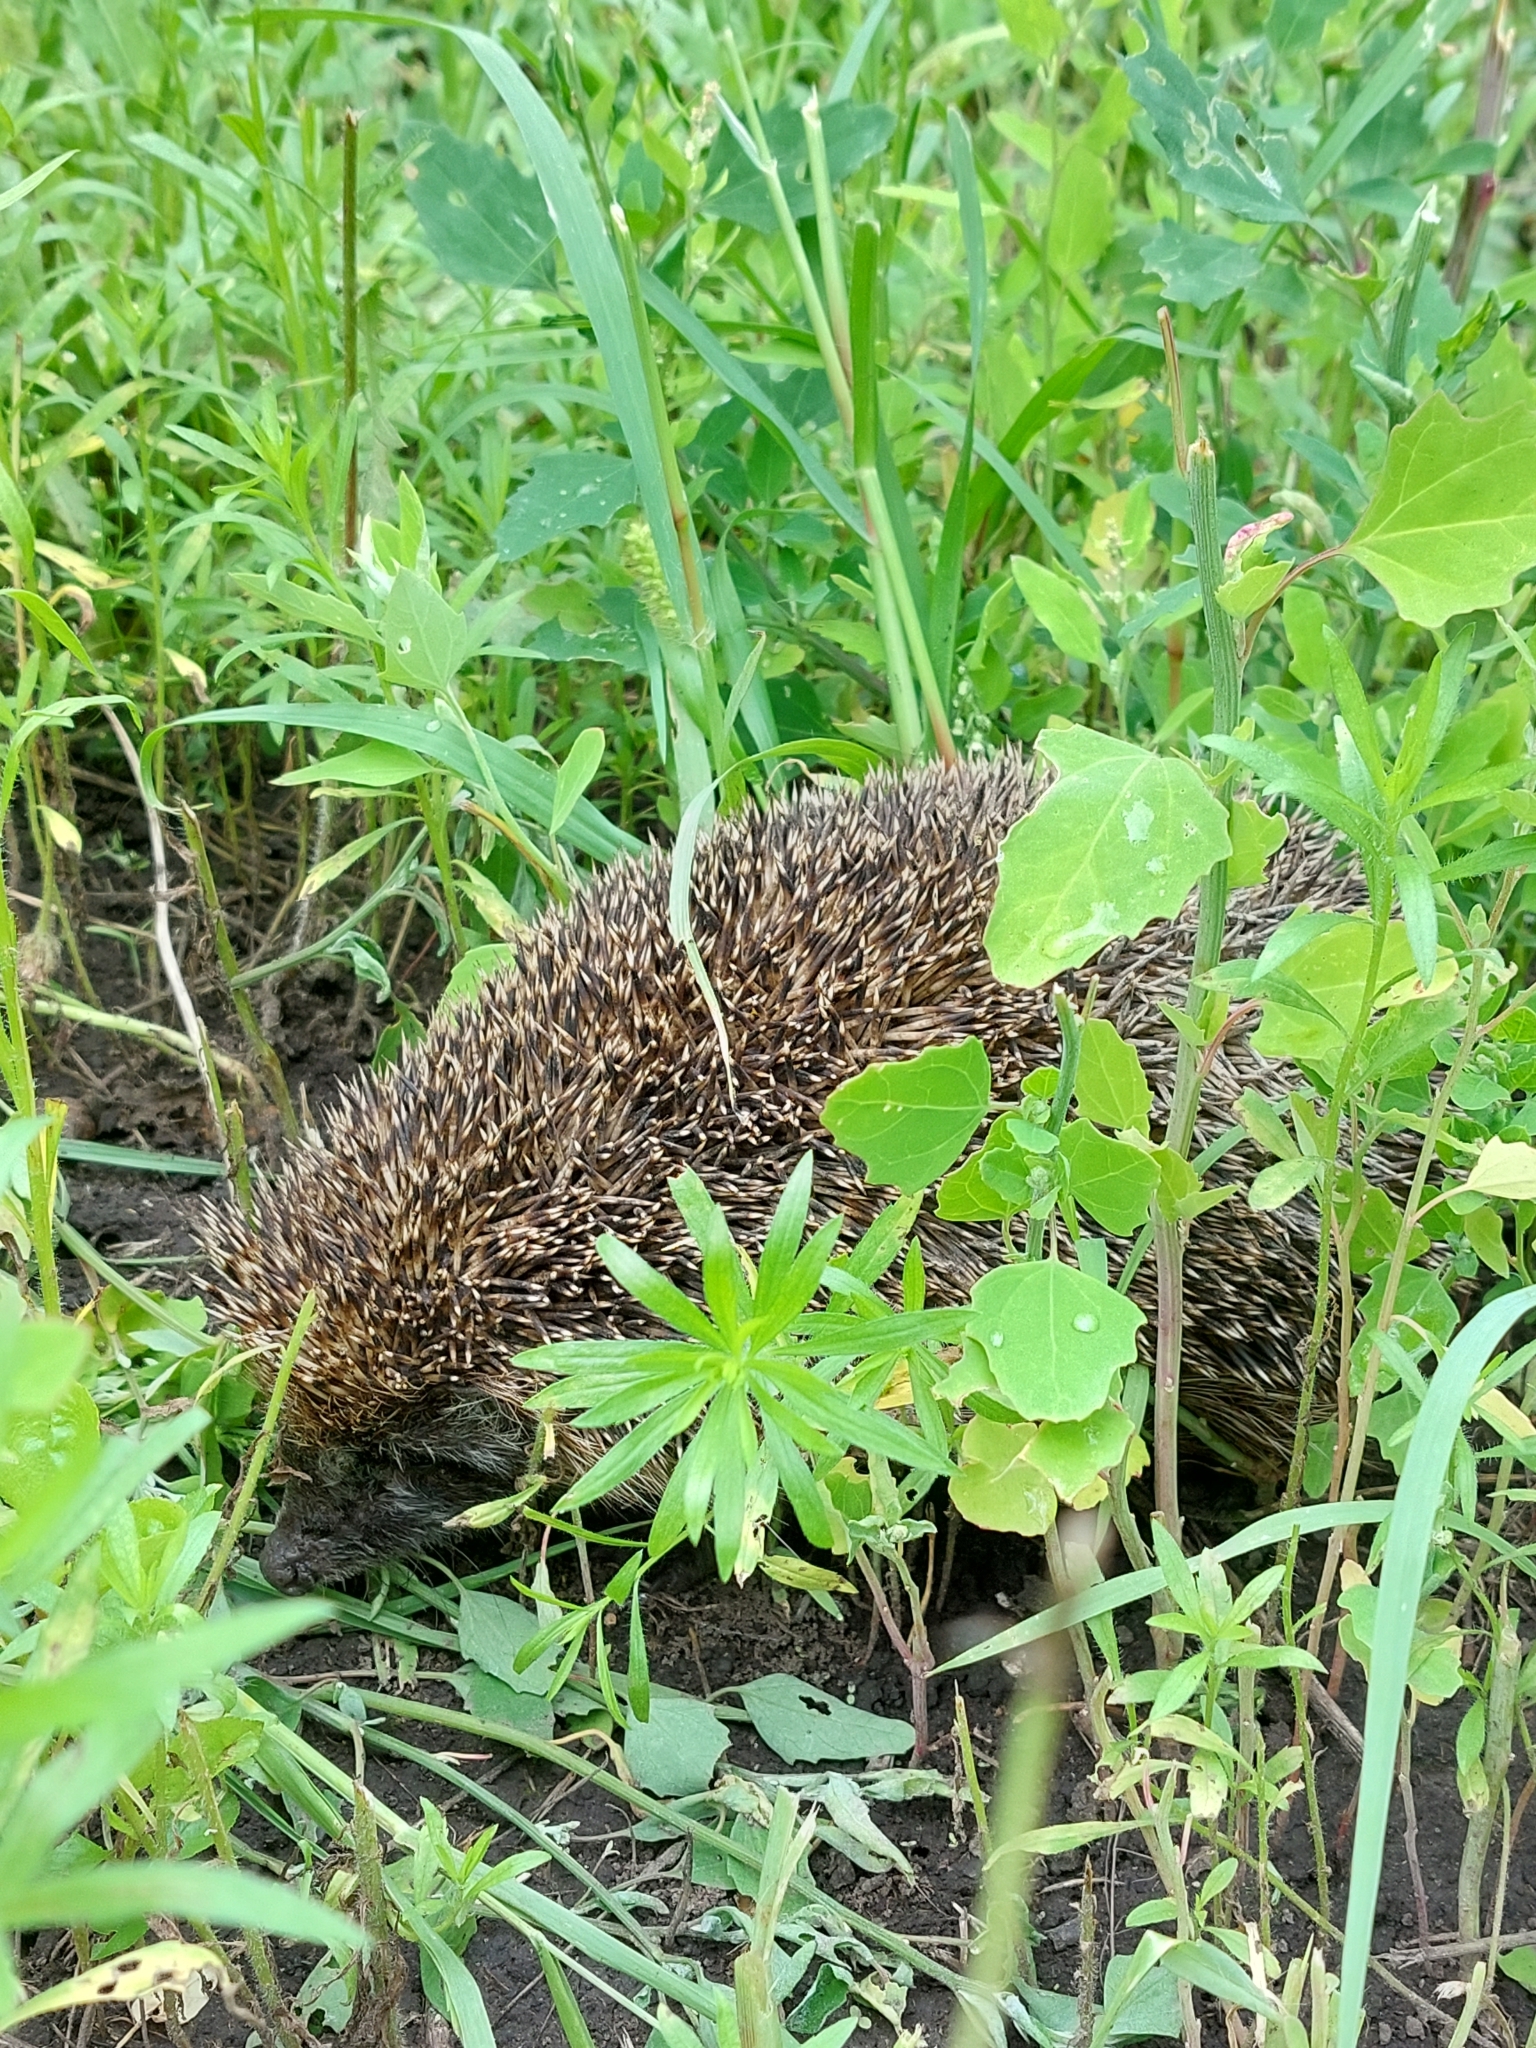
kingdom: Animalia
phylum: Chordata
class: Mammalia
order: Erinaceomorpha
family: Erinaceidae
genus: Erinaceus
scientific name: Erinaceus roumanicus
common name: Northern white-breasted hedgehog
